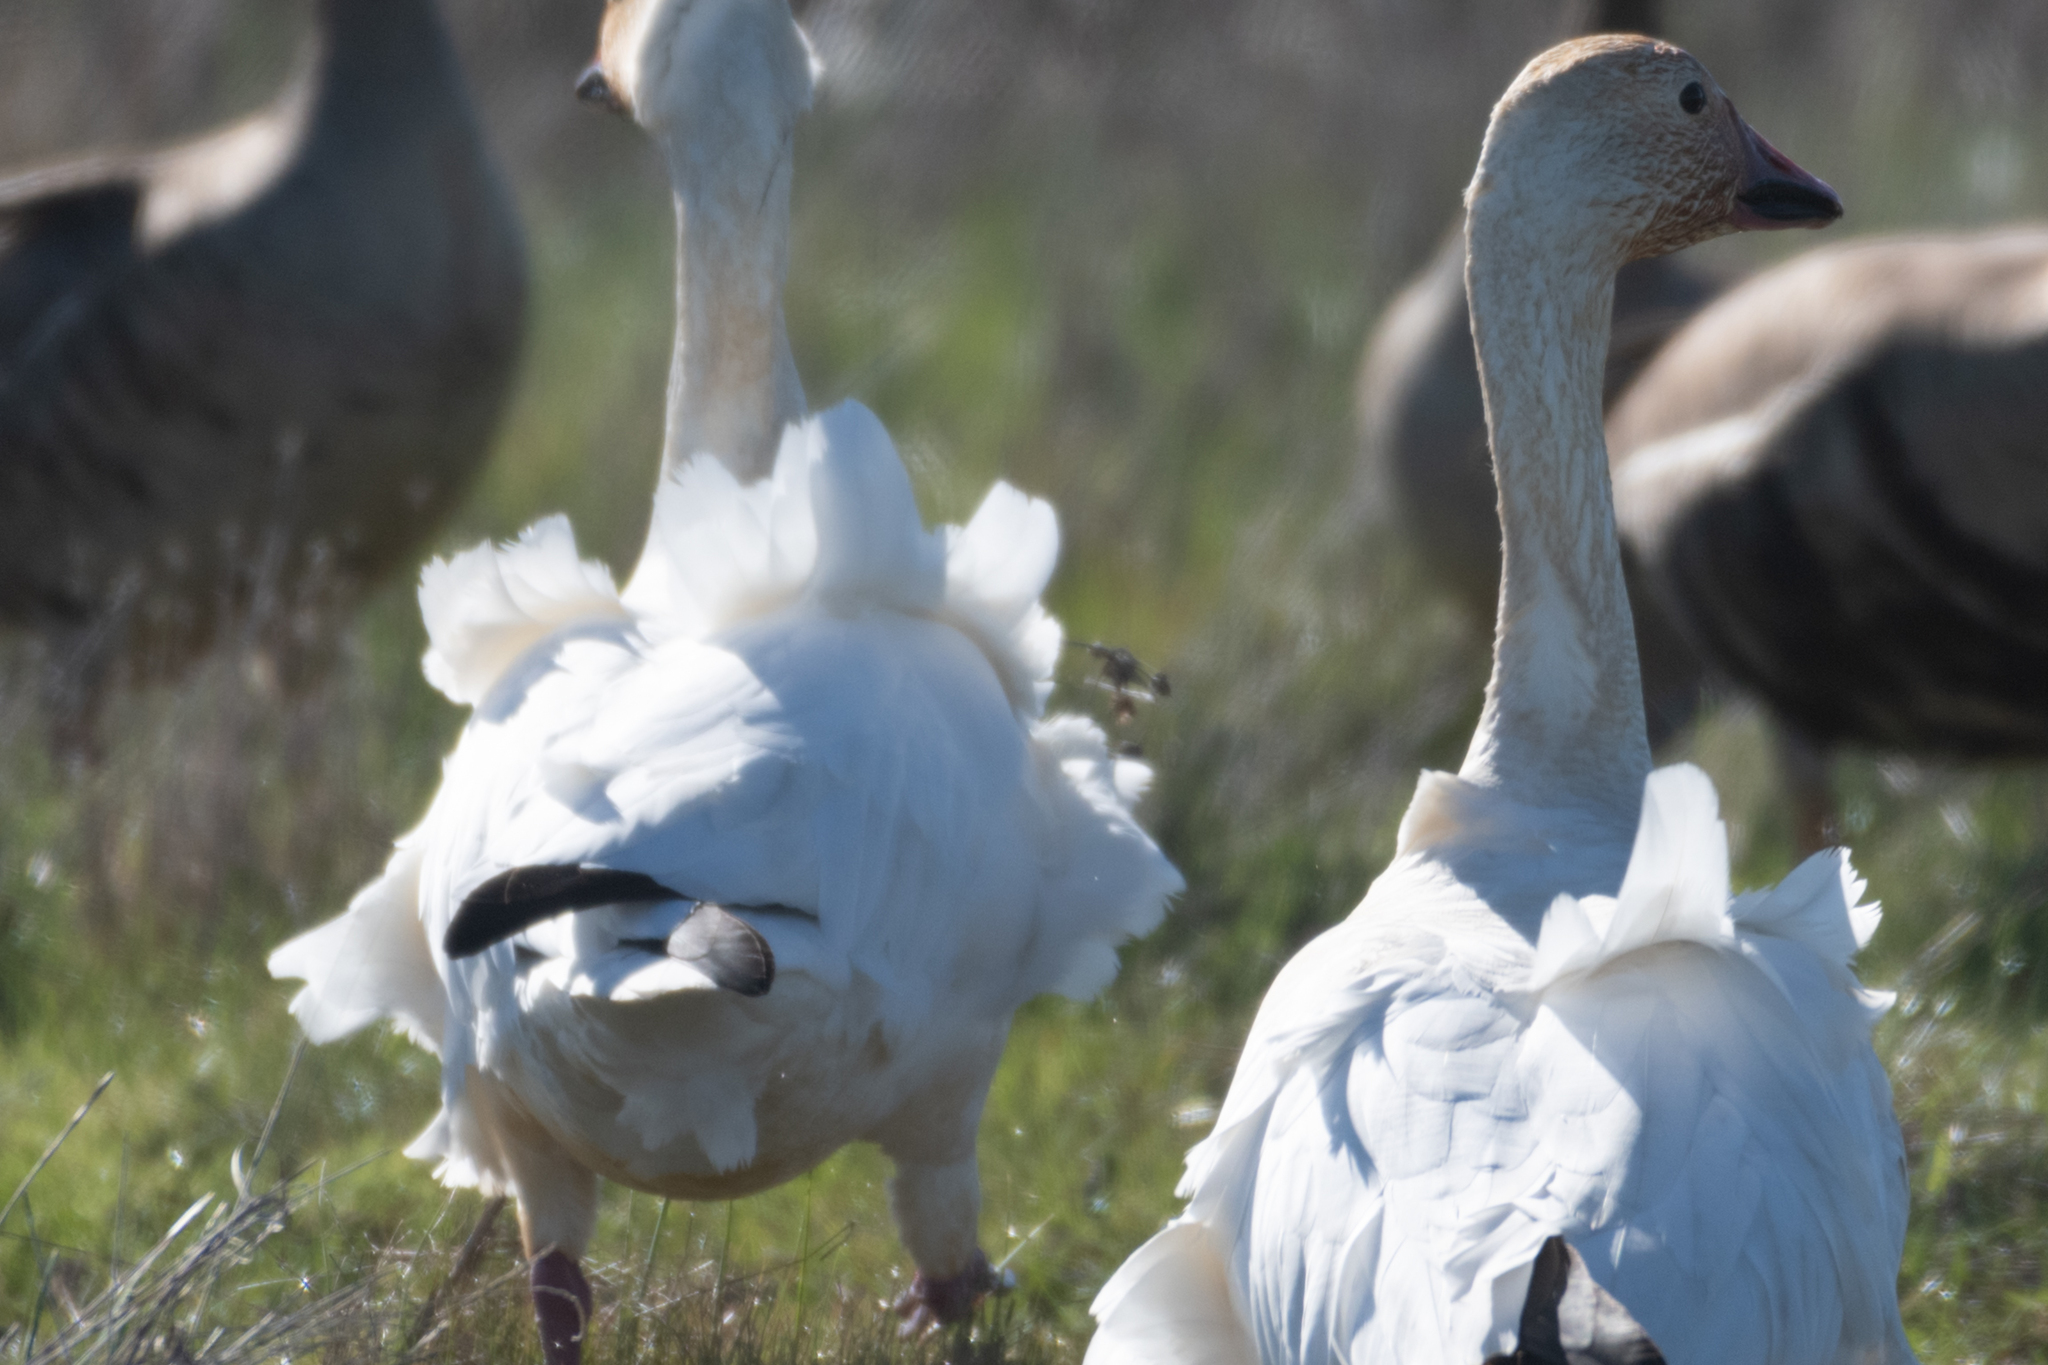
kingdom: Animalia
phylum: Chordata
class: Aves
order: Anseriformes
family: Anatidae
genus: Anser
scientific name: Anser caerulescens
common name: Snow goose
